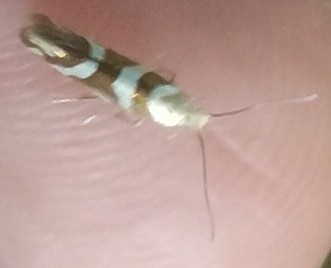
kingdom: Animalia
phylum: Arthropoda
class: Insecta
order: Lepidoptera
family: Argyresthiidae
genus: Argyresthia
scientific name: Argyresthia goedartella
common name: Golden argent
